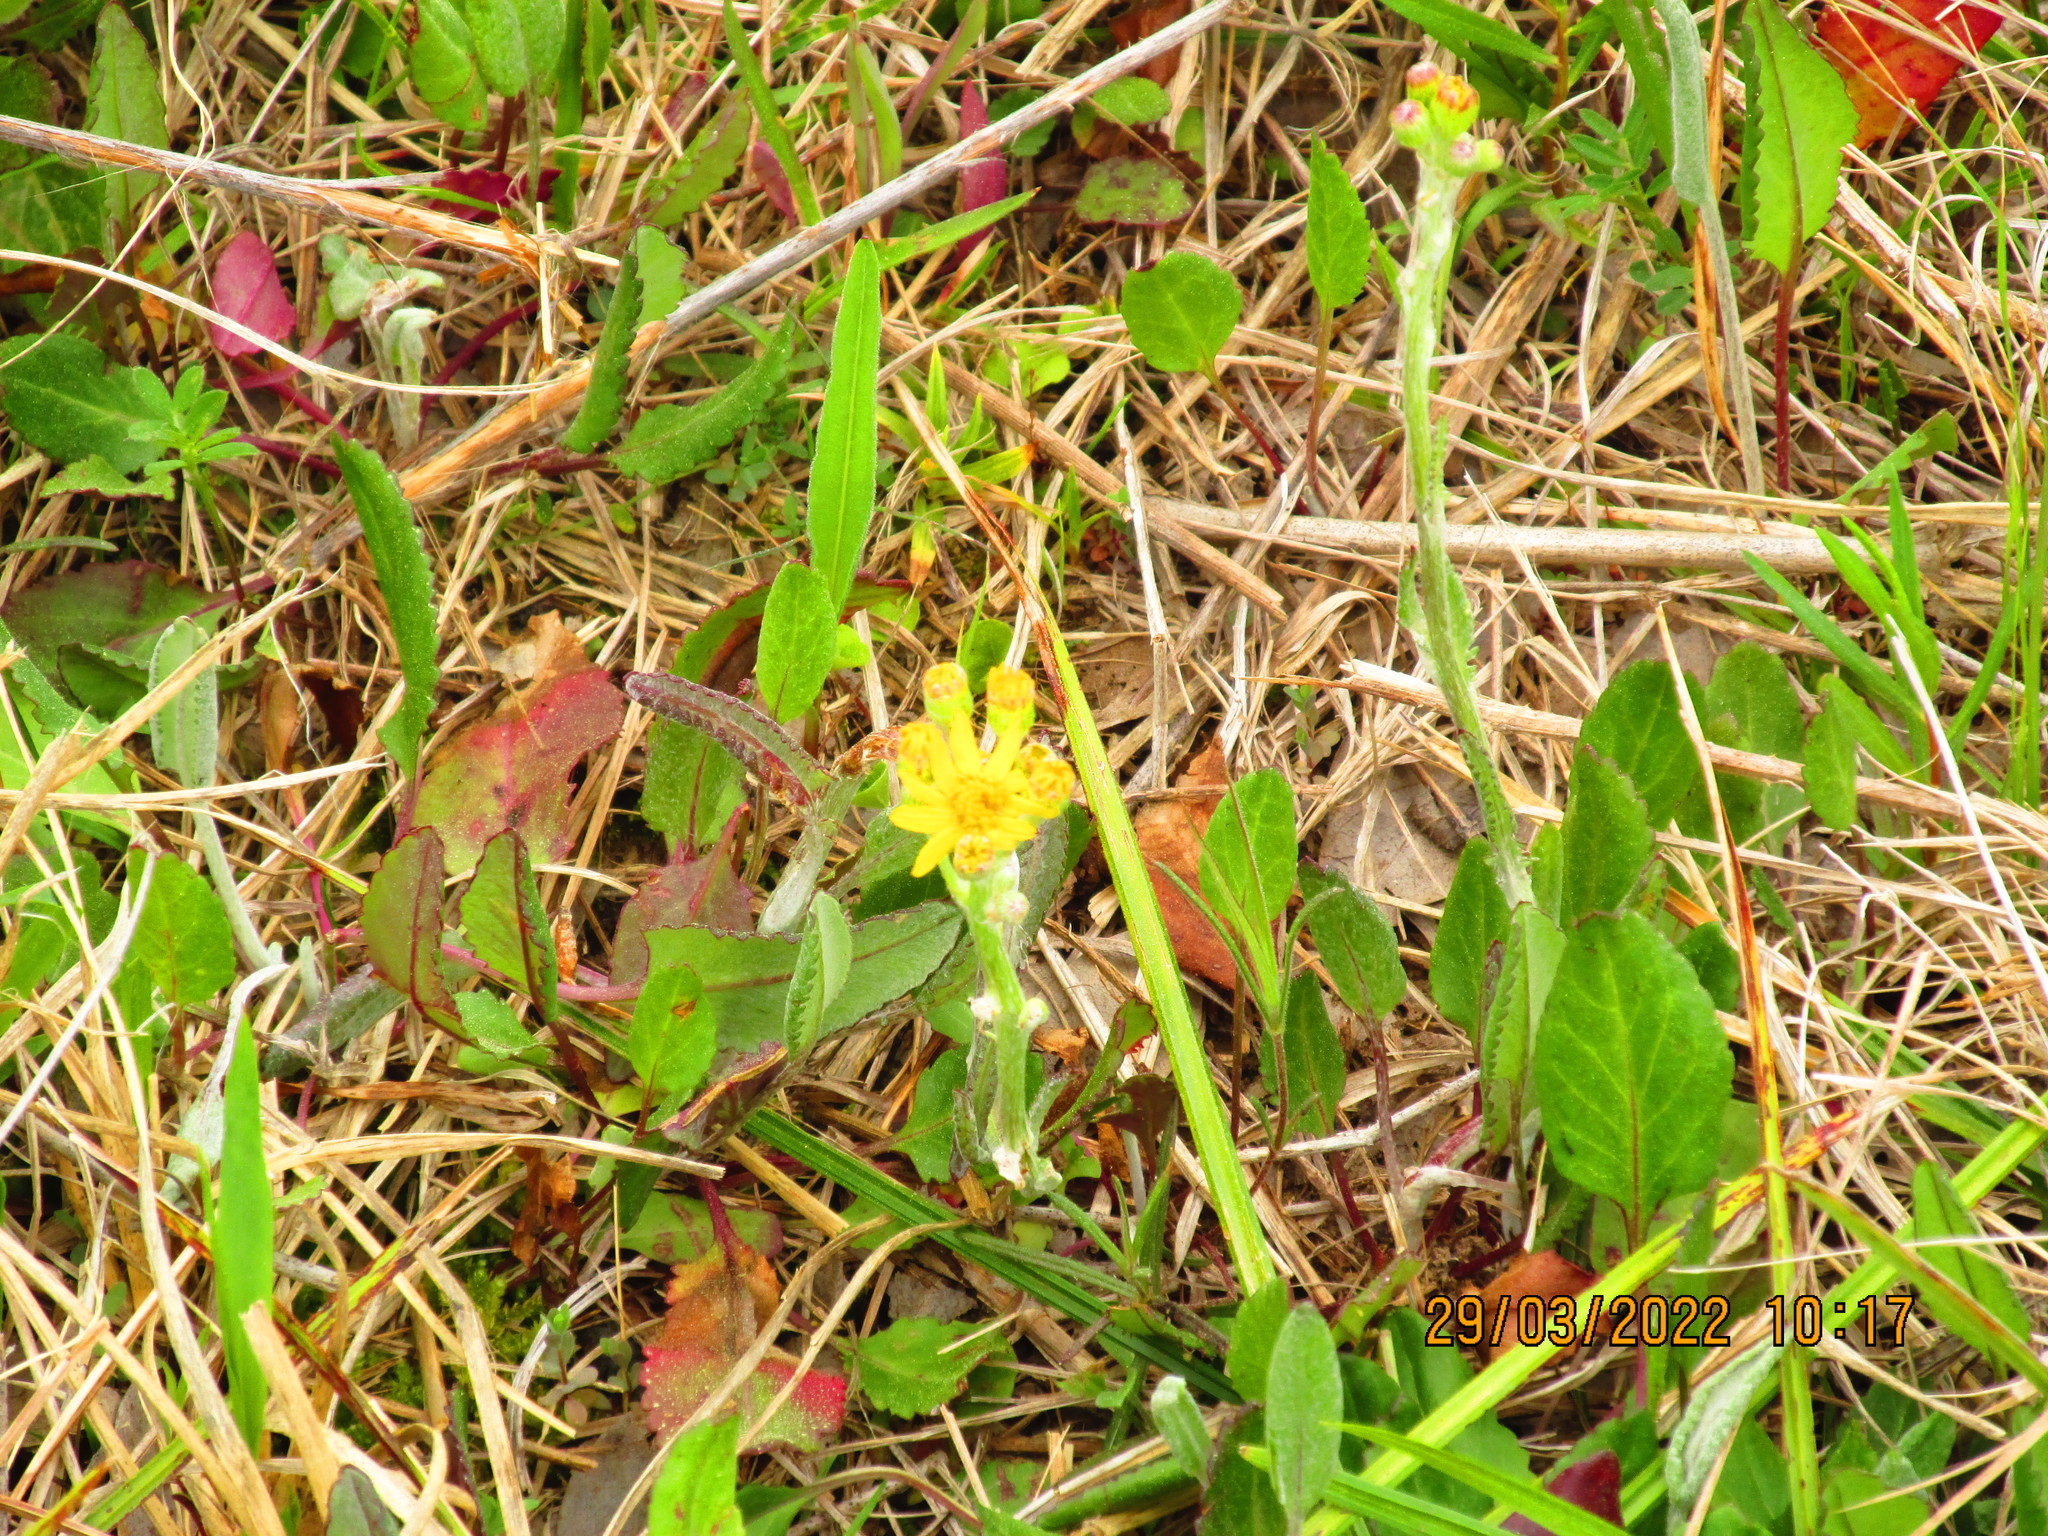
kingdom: Plantae
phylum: Tracheophyta
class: Magnoliopsida
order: Asterales
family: Asteraceae
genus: Packera
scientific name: Packera dubia
